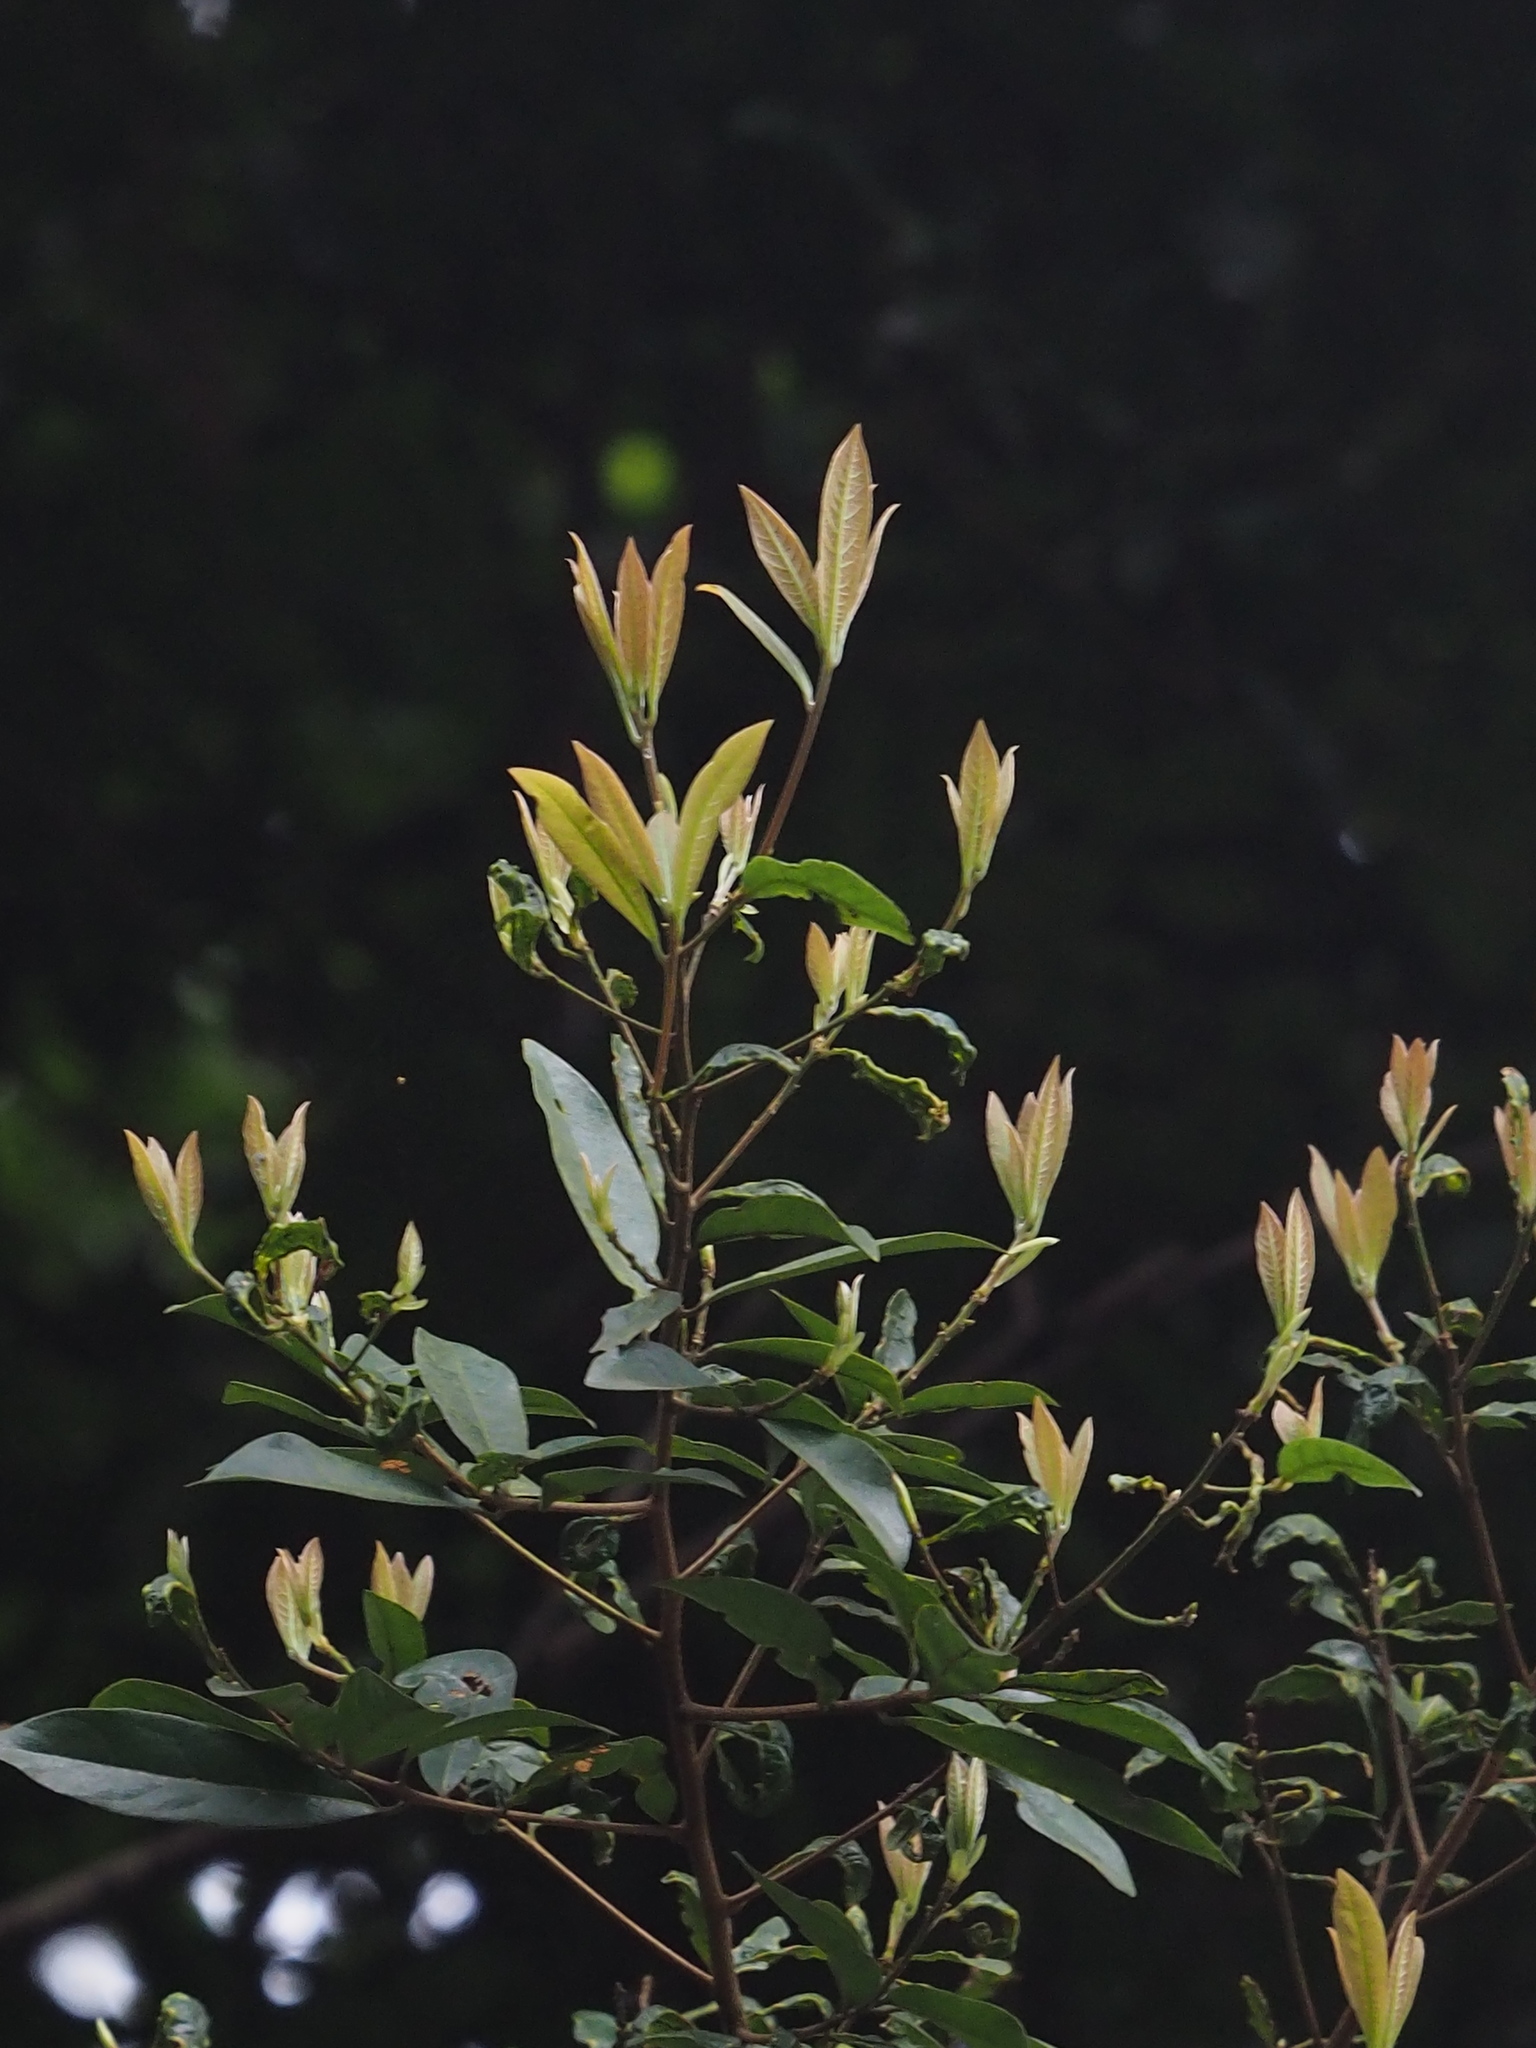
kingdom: Plantae
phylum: Tracheophyta
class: Magnoliopsida
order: Laurales
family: Lauraceae
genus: Litsea
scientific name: Litsea hypophaea
